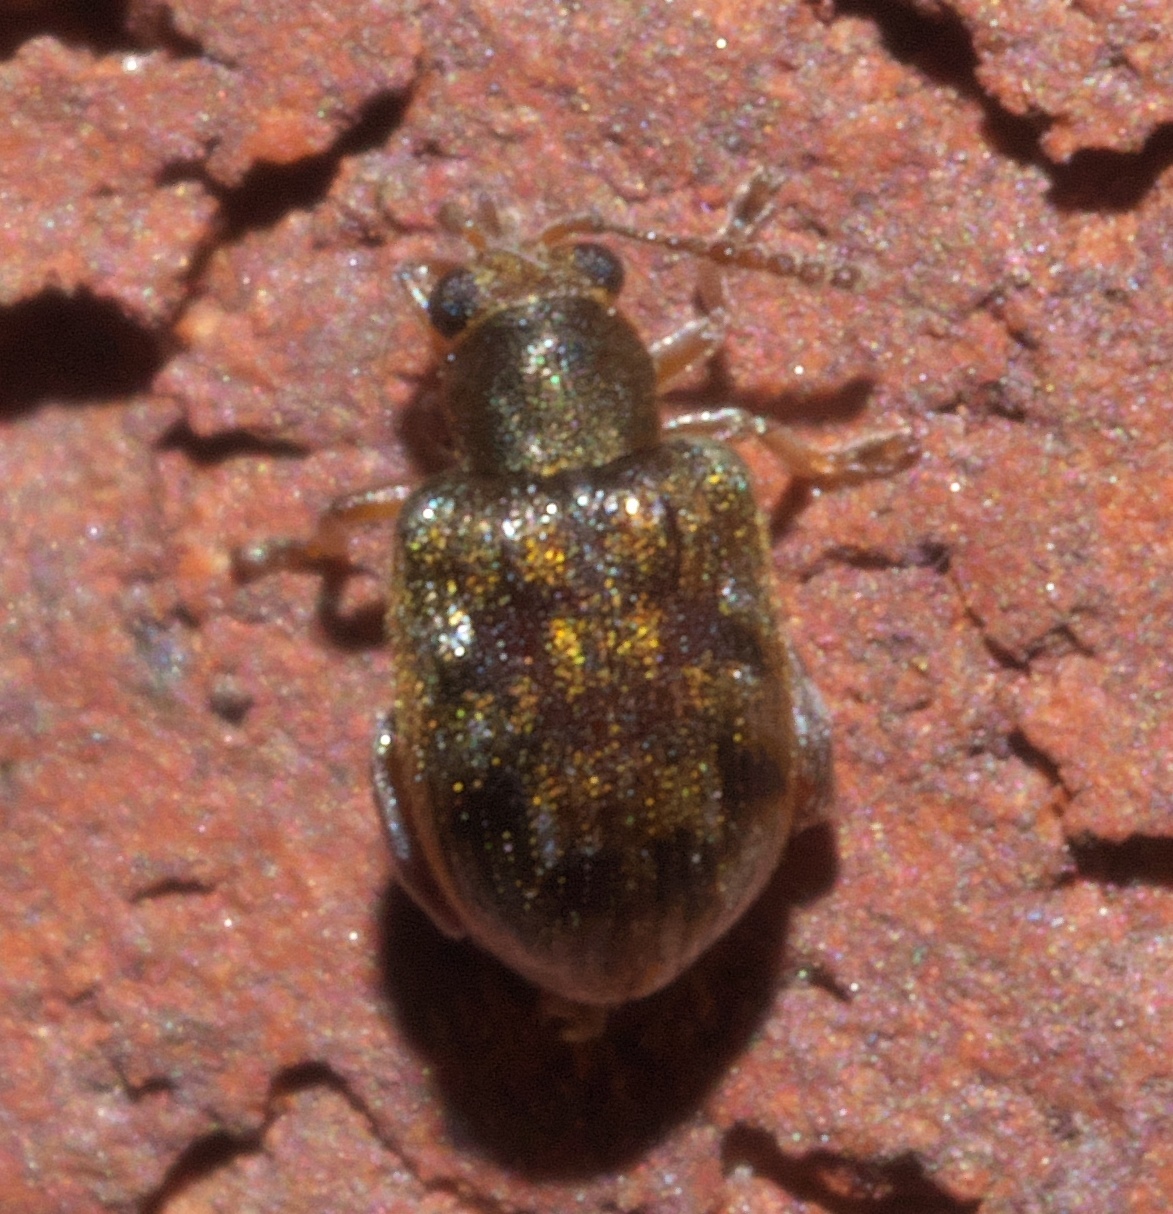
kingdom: Animalia
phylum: Arthropoda
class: Insecta
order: Coleoptera
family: Chrysomelidae
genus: Pseudolampis
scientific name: Pseudolampis guttata
